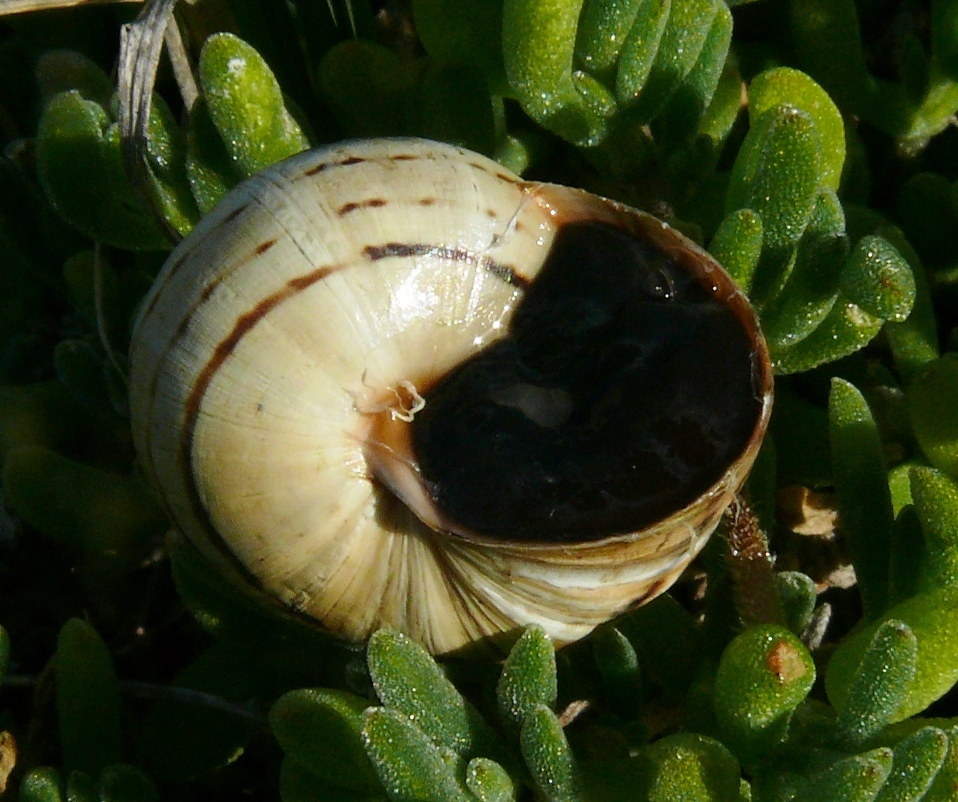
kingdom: Animalia
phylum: Mollusca
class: Gastropoda
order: Stylommatophora
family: Helicidae
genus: Theba
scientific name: Theba pisana
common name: White snail
